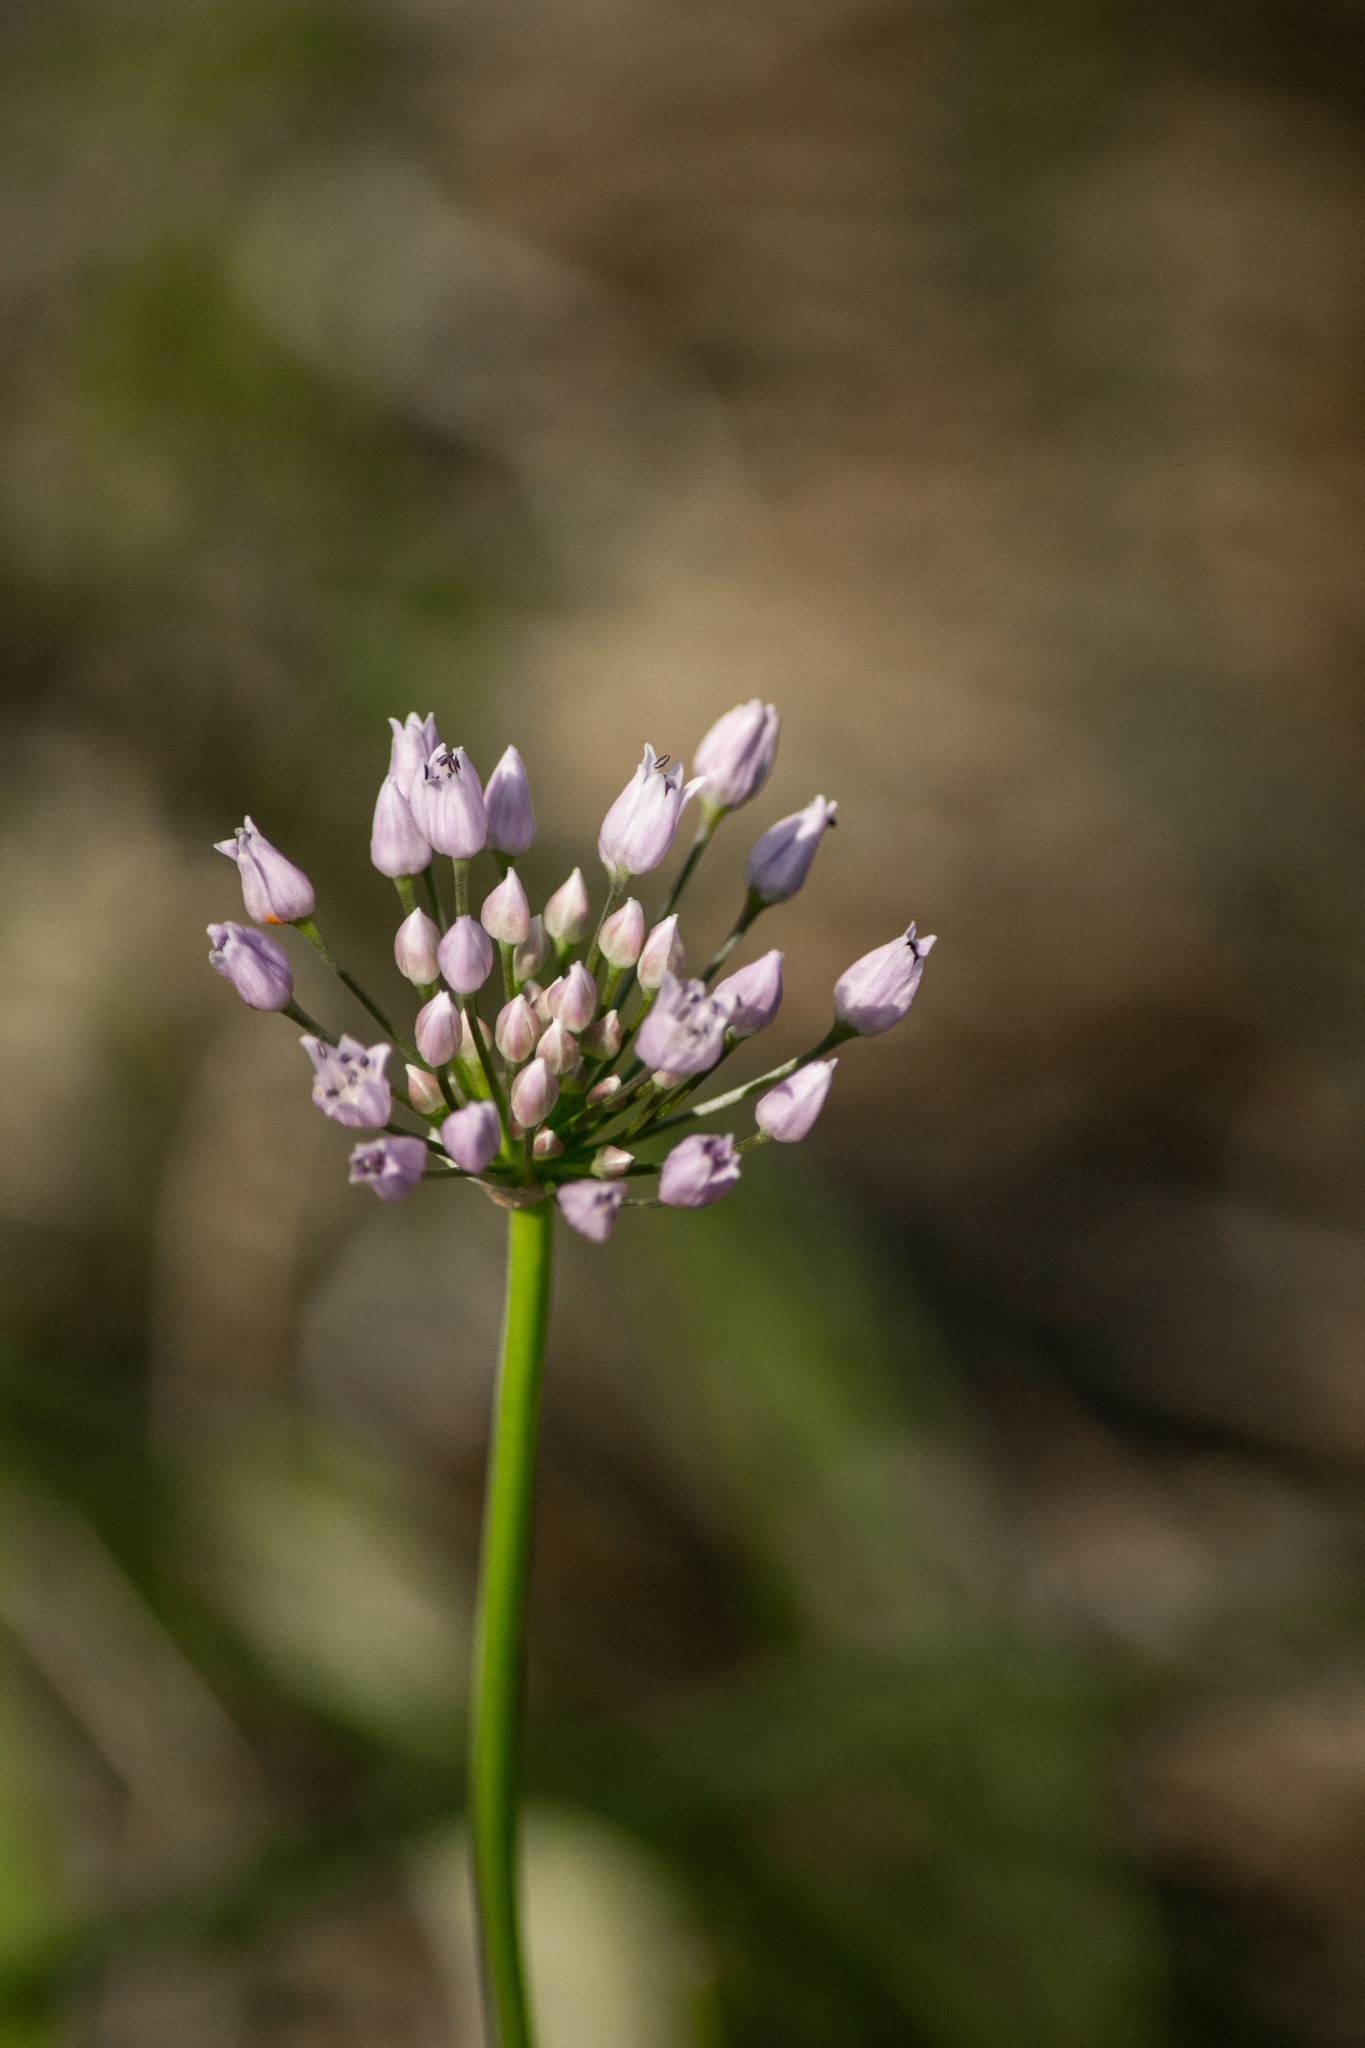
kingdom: Plantae
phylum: Tracheophyta
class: Liliopsida
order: Asparagales
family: Amaryllidaceae
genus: Allium
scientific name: Allium angulosum
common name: Mouse garlic
